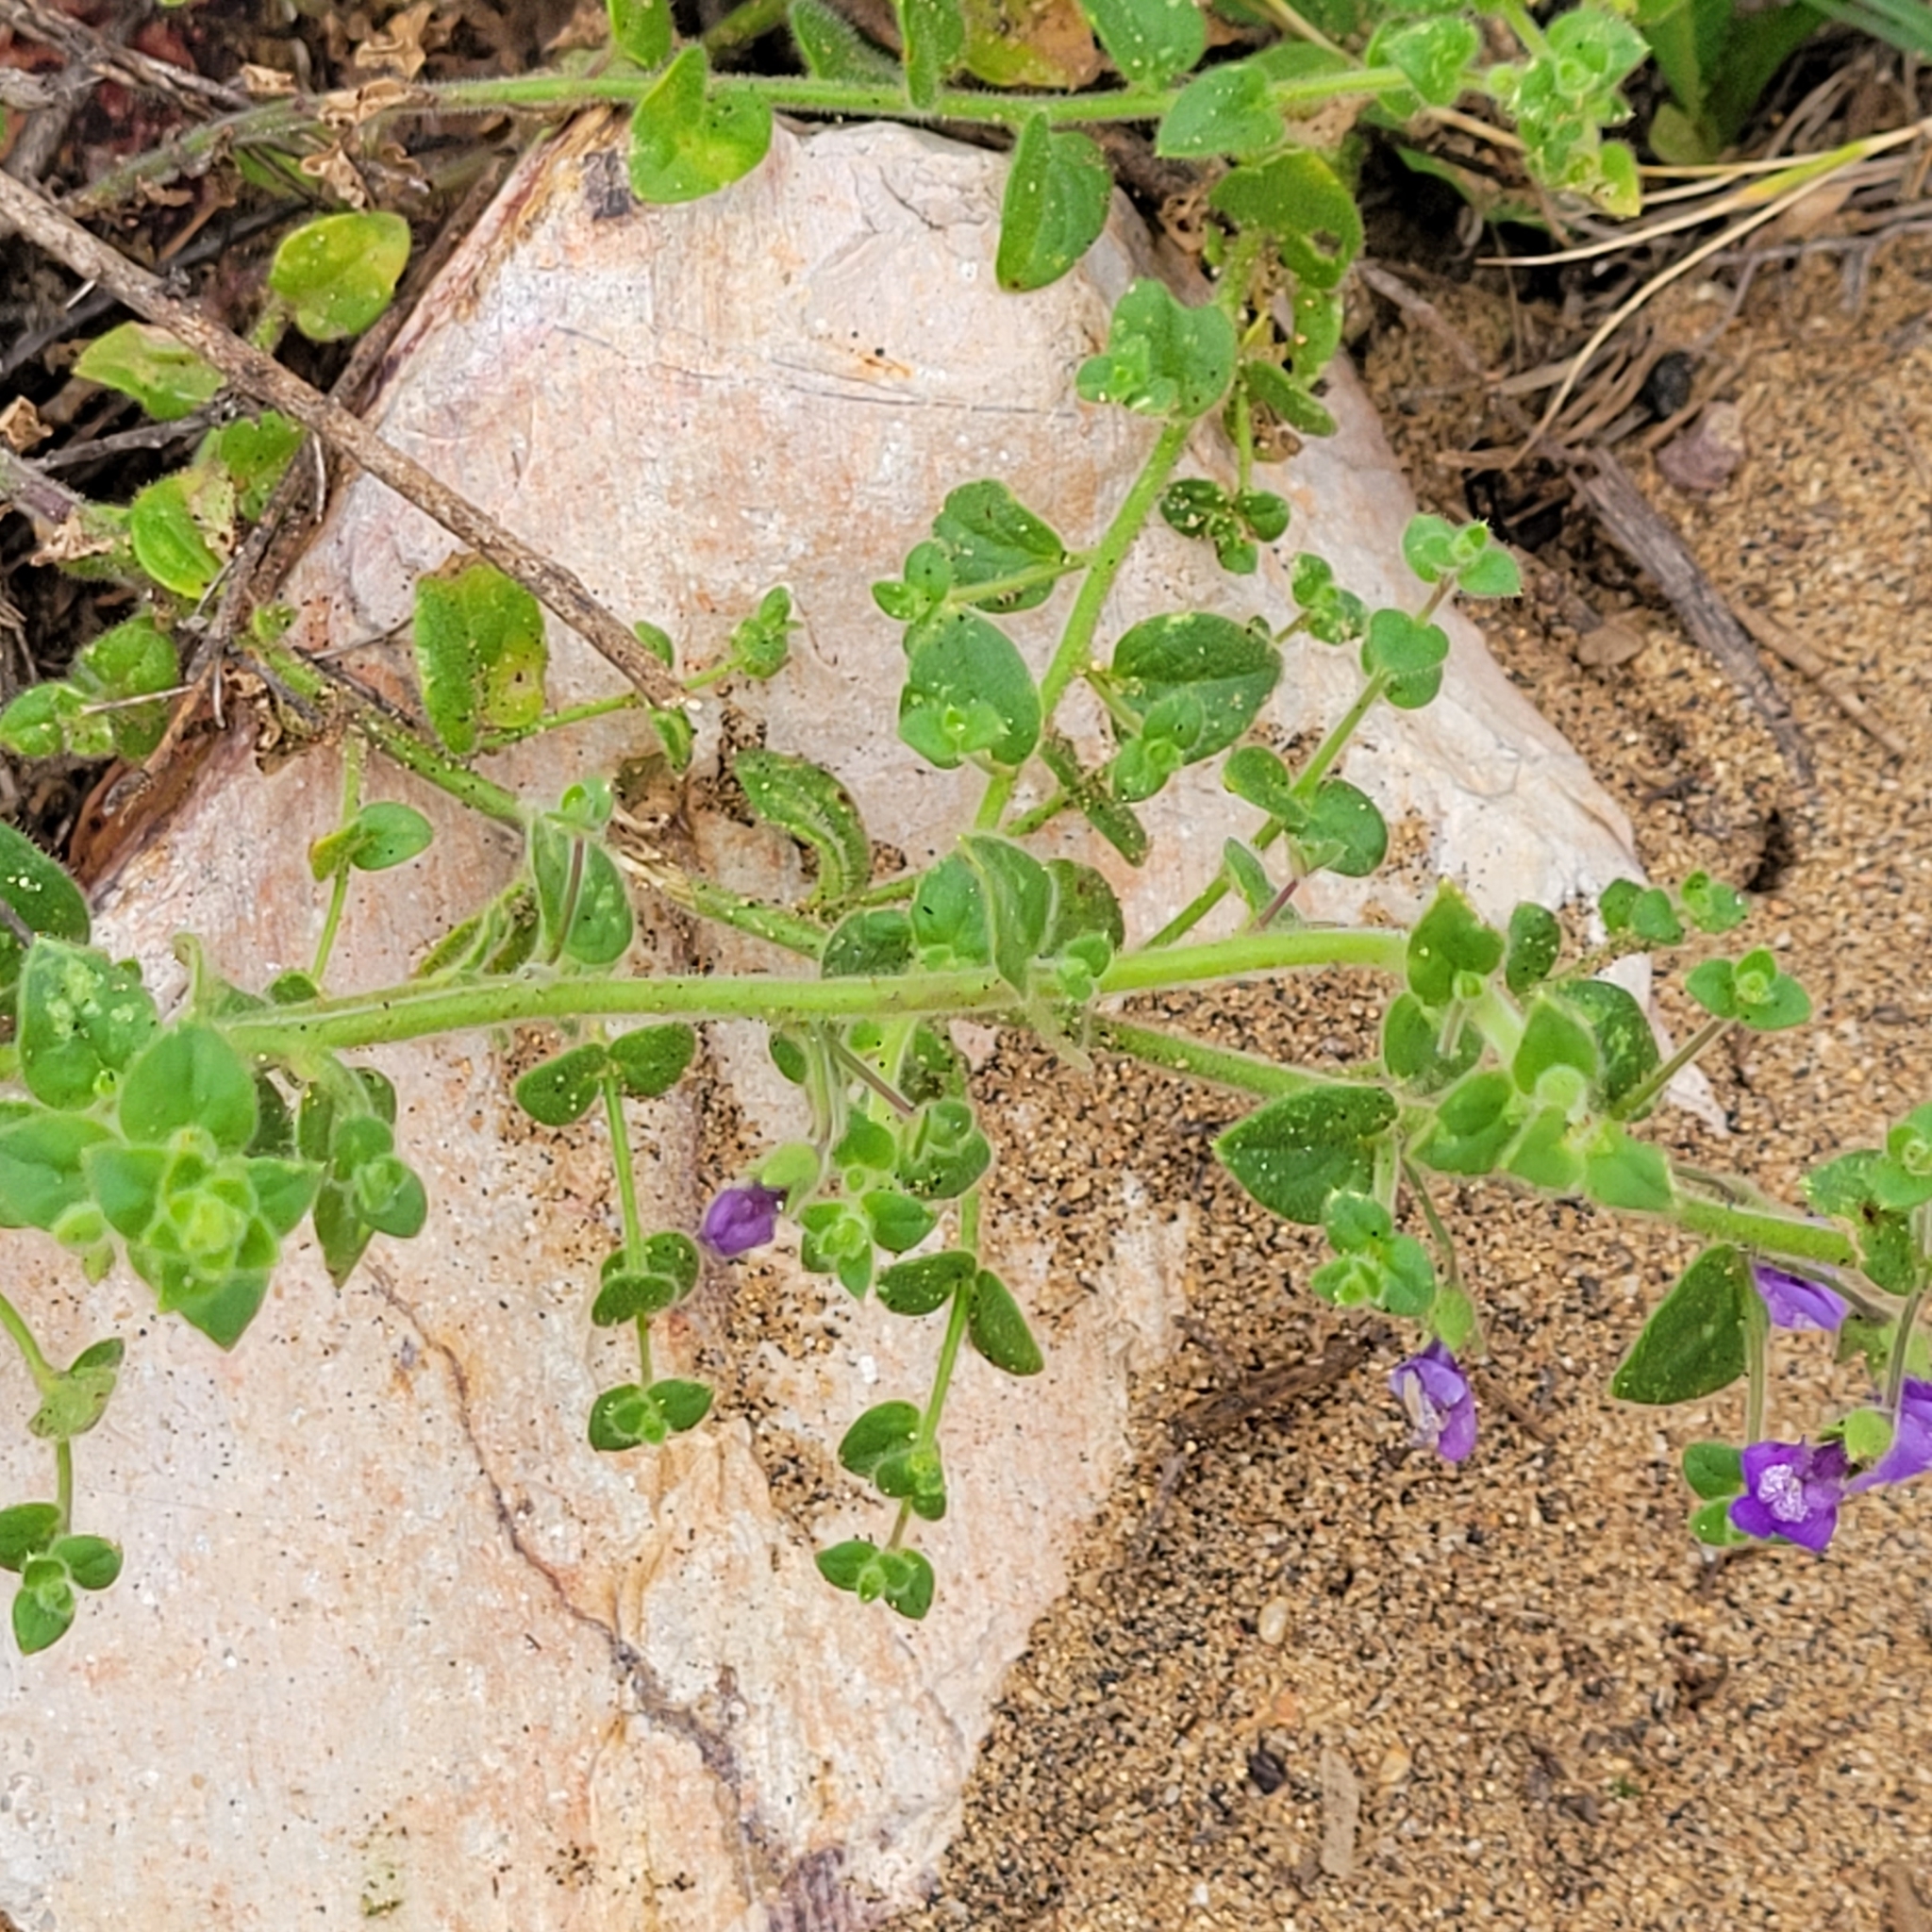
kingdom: Plantae
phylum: Tracheophyta
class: Magnoliopsida
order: Lamiales
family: Plantaginaceae
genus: Sairocarpus
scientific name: Sairocarpus nuttallianus
